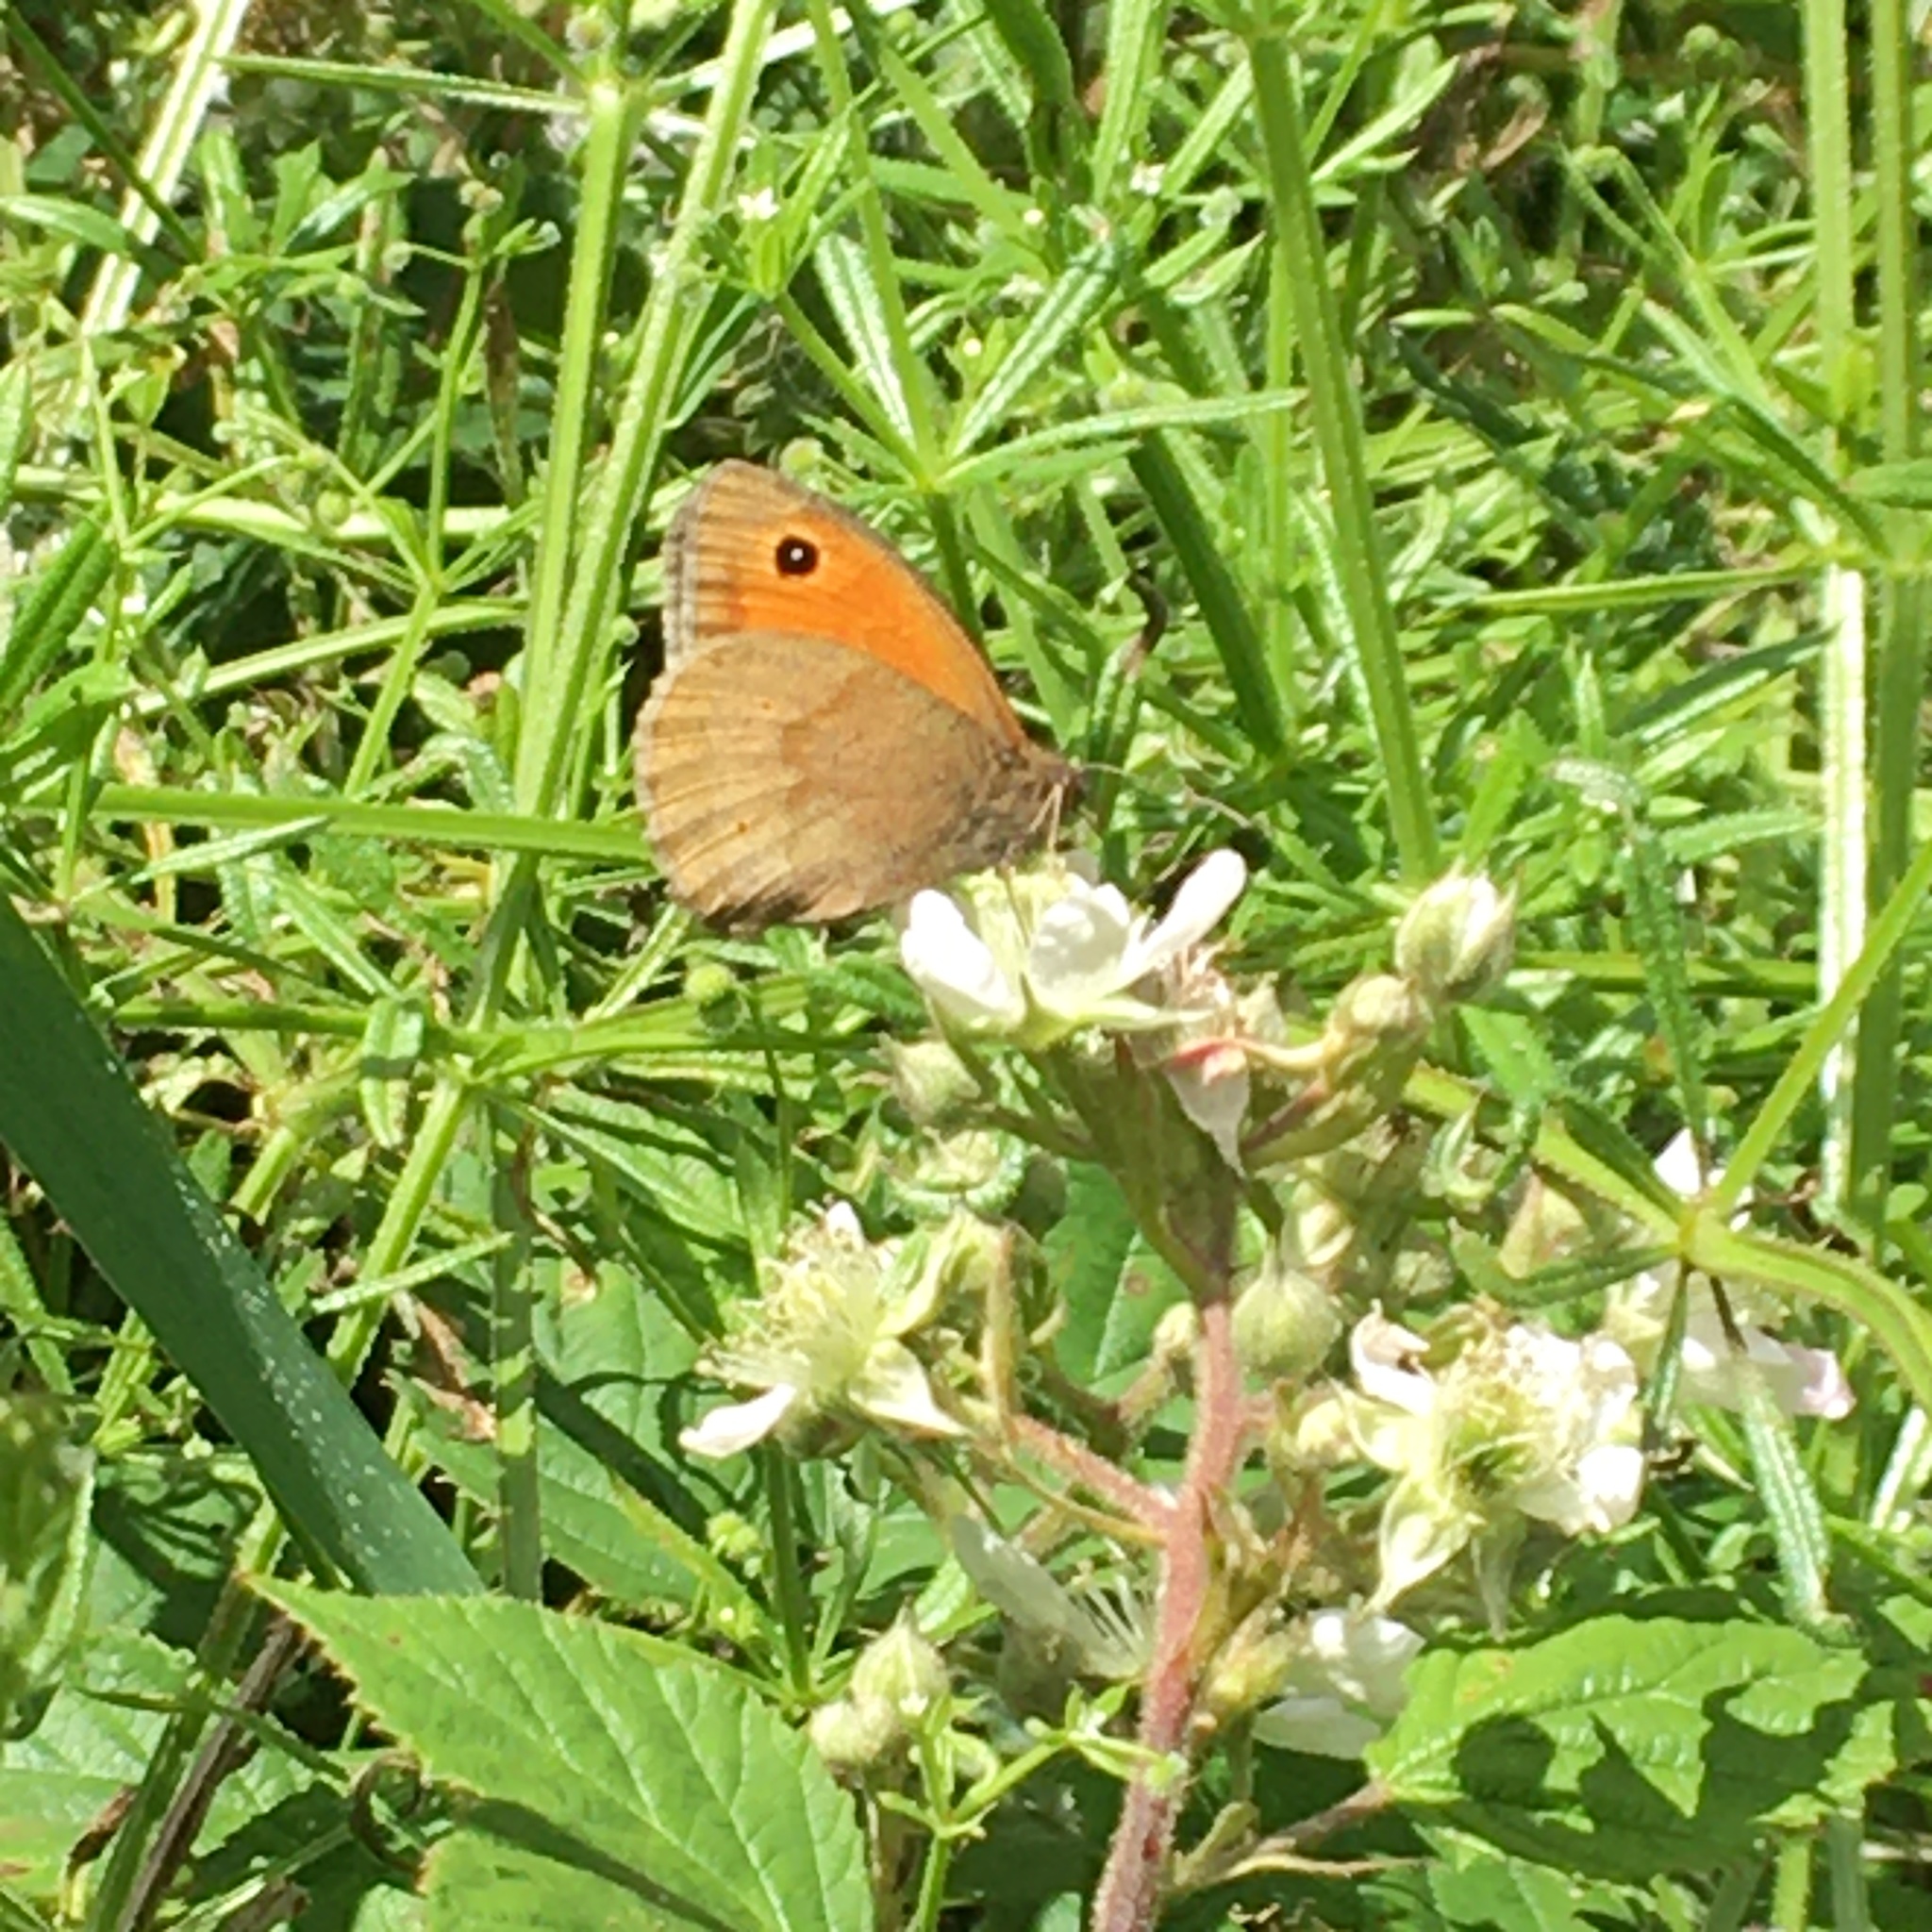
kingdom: Animalia
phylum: Arthropoda
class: Insecta
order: Lepidoptera
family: Nymphalidae
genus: Maniola
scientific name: Maniola jurtina
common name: Meadow brown
